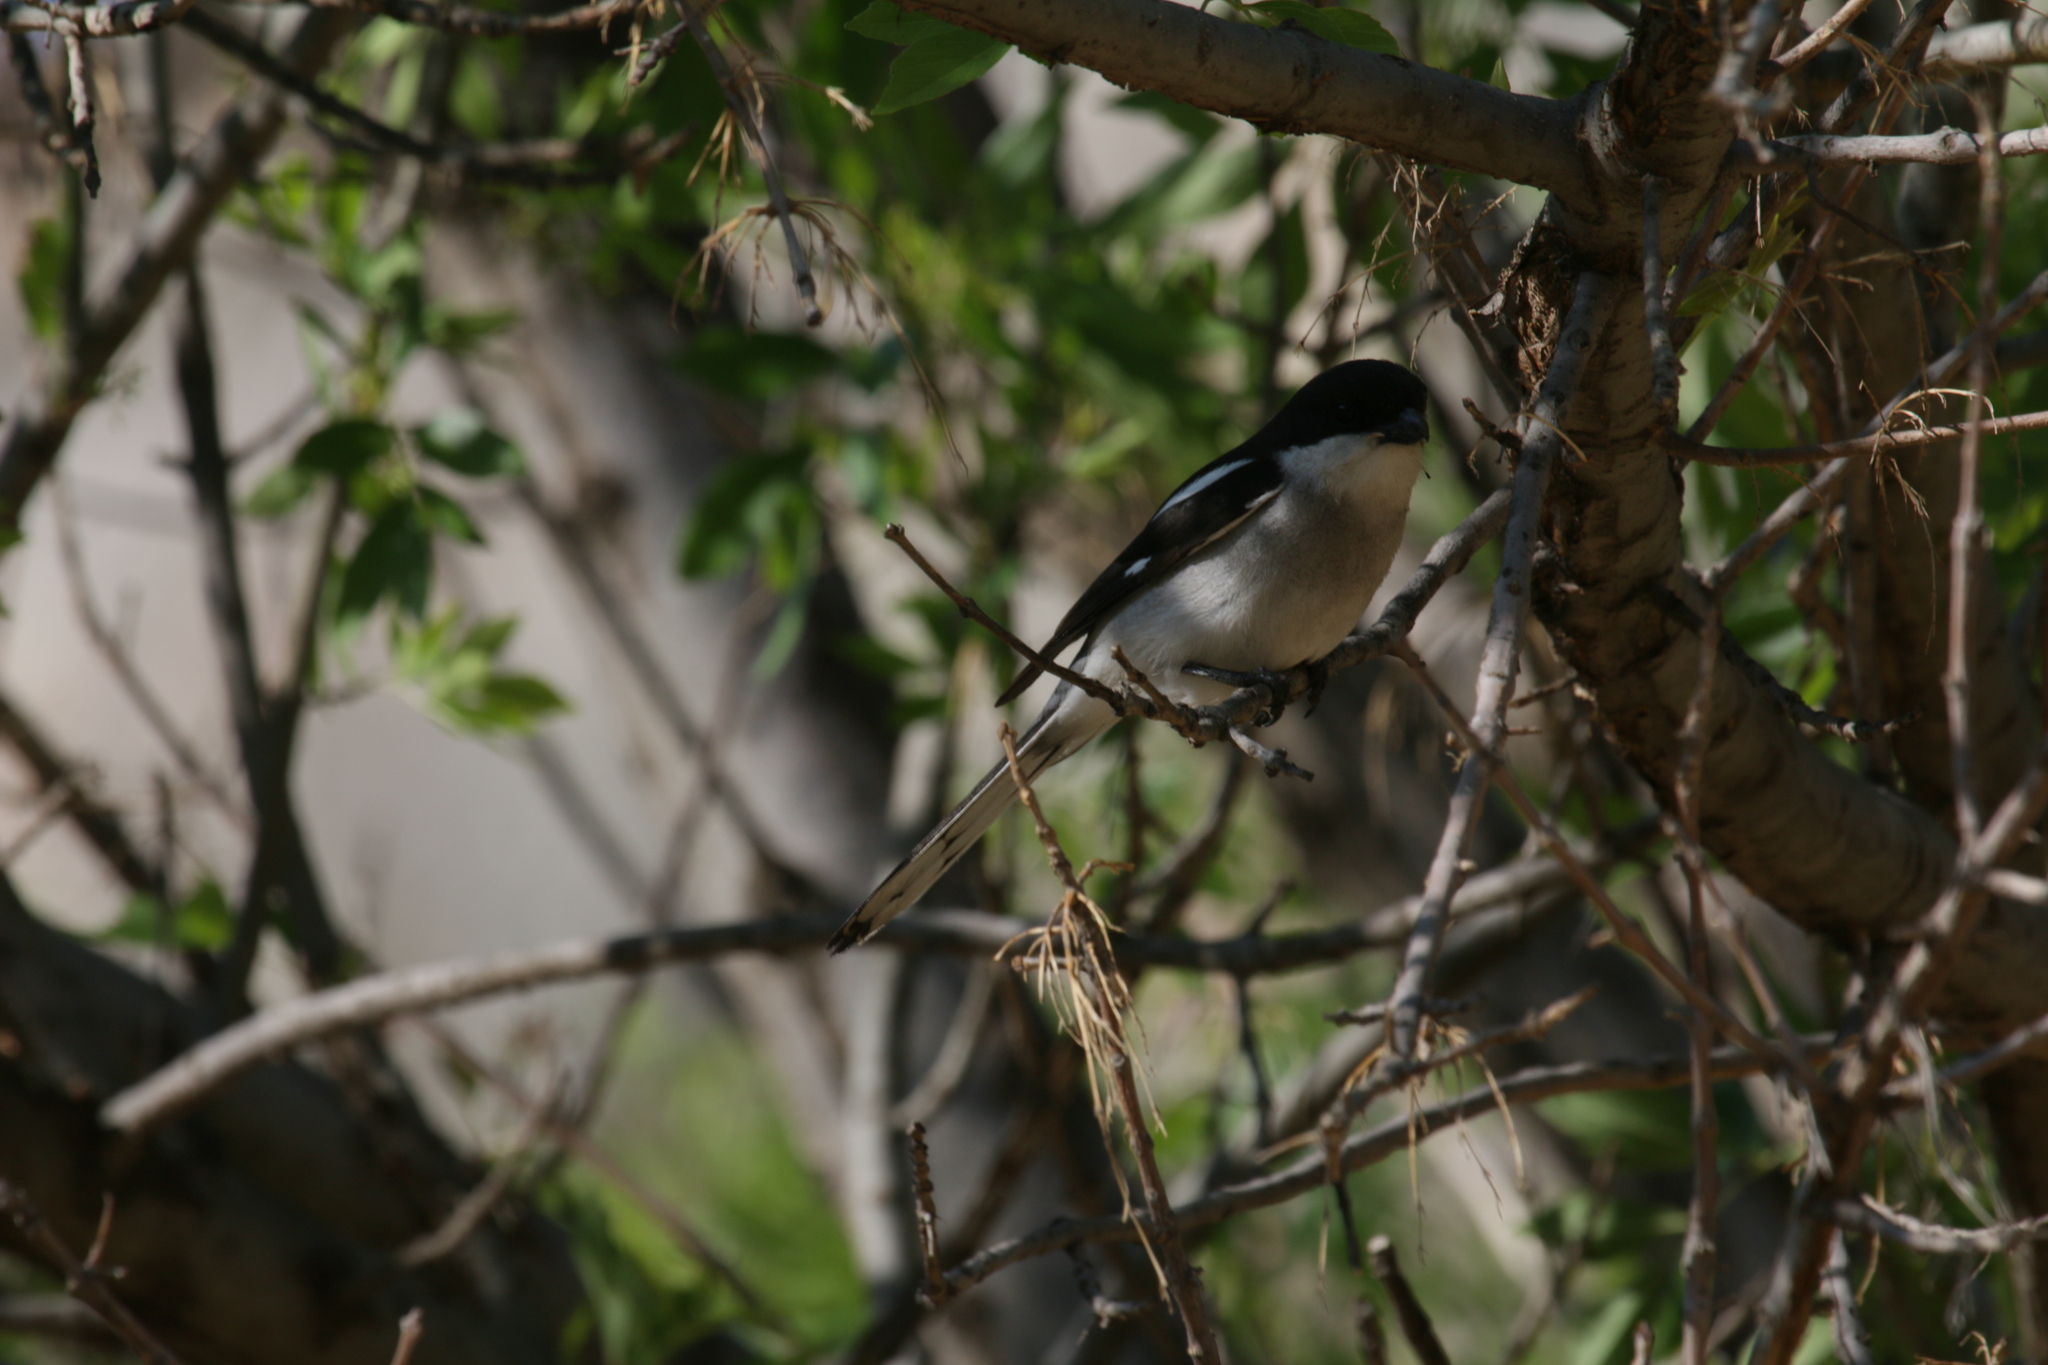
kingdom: Animalia
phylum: Chordata
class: Aves
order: Passeriformes
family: Laniidae
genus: Lanius
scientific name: Lanius collaris
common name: Southern fiscal
